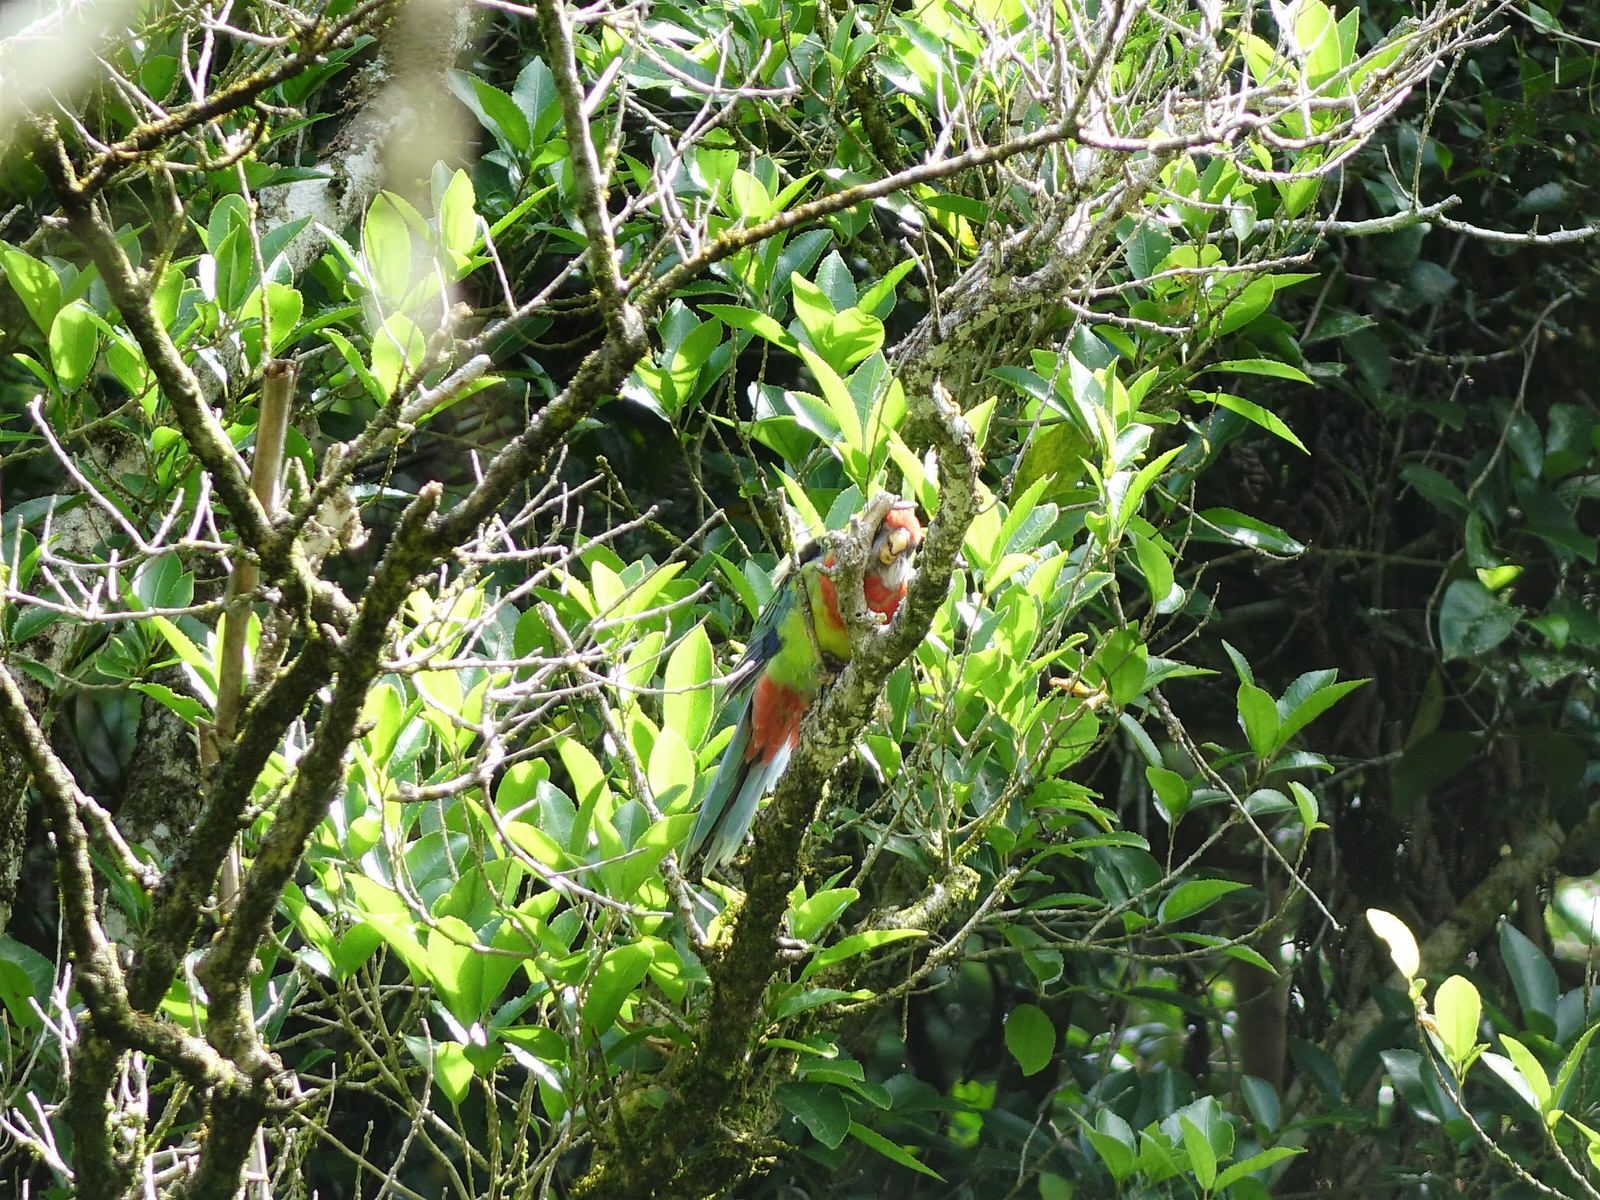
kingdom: Animalia
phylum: Chordata
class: Aves
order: Psittaciformes
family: Psittacidae
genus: Platycercus
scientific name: Platycercus eximius
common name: Eastern rosella
